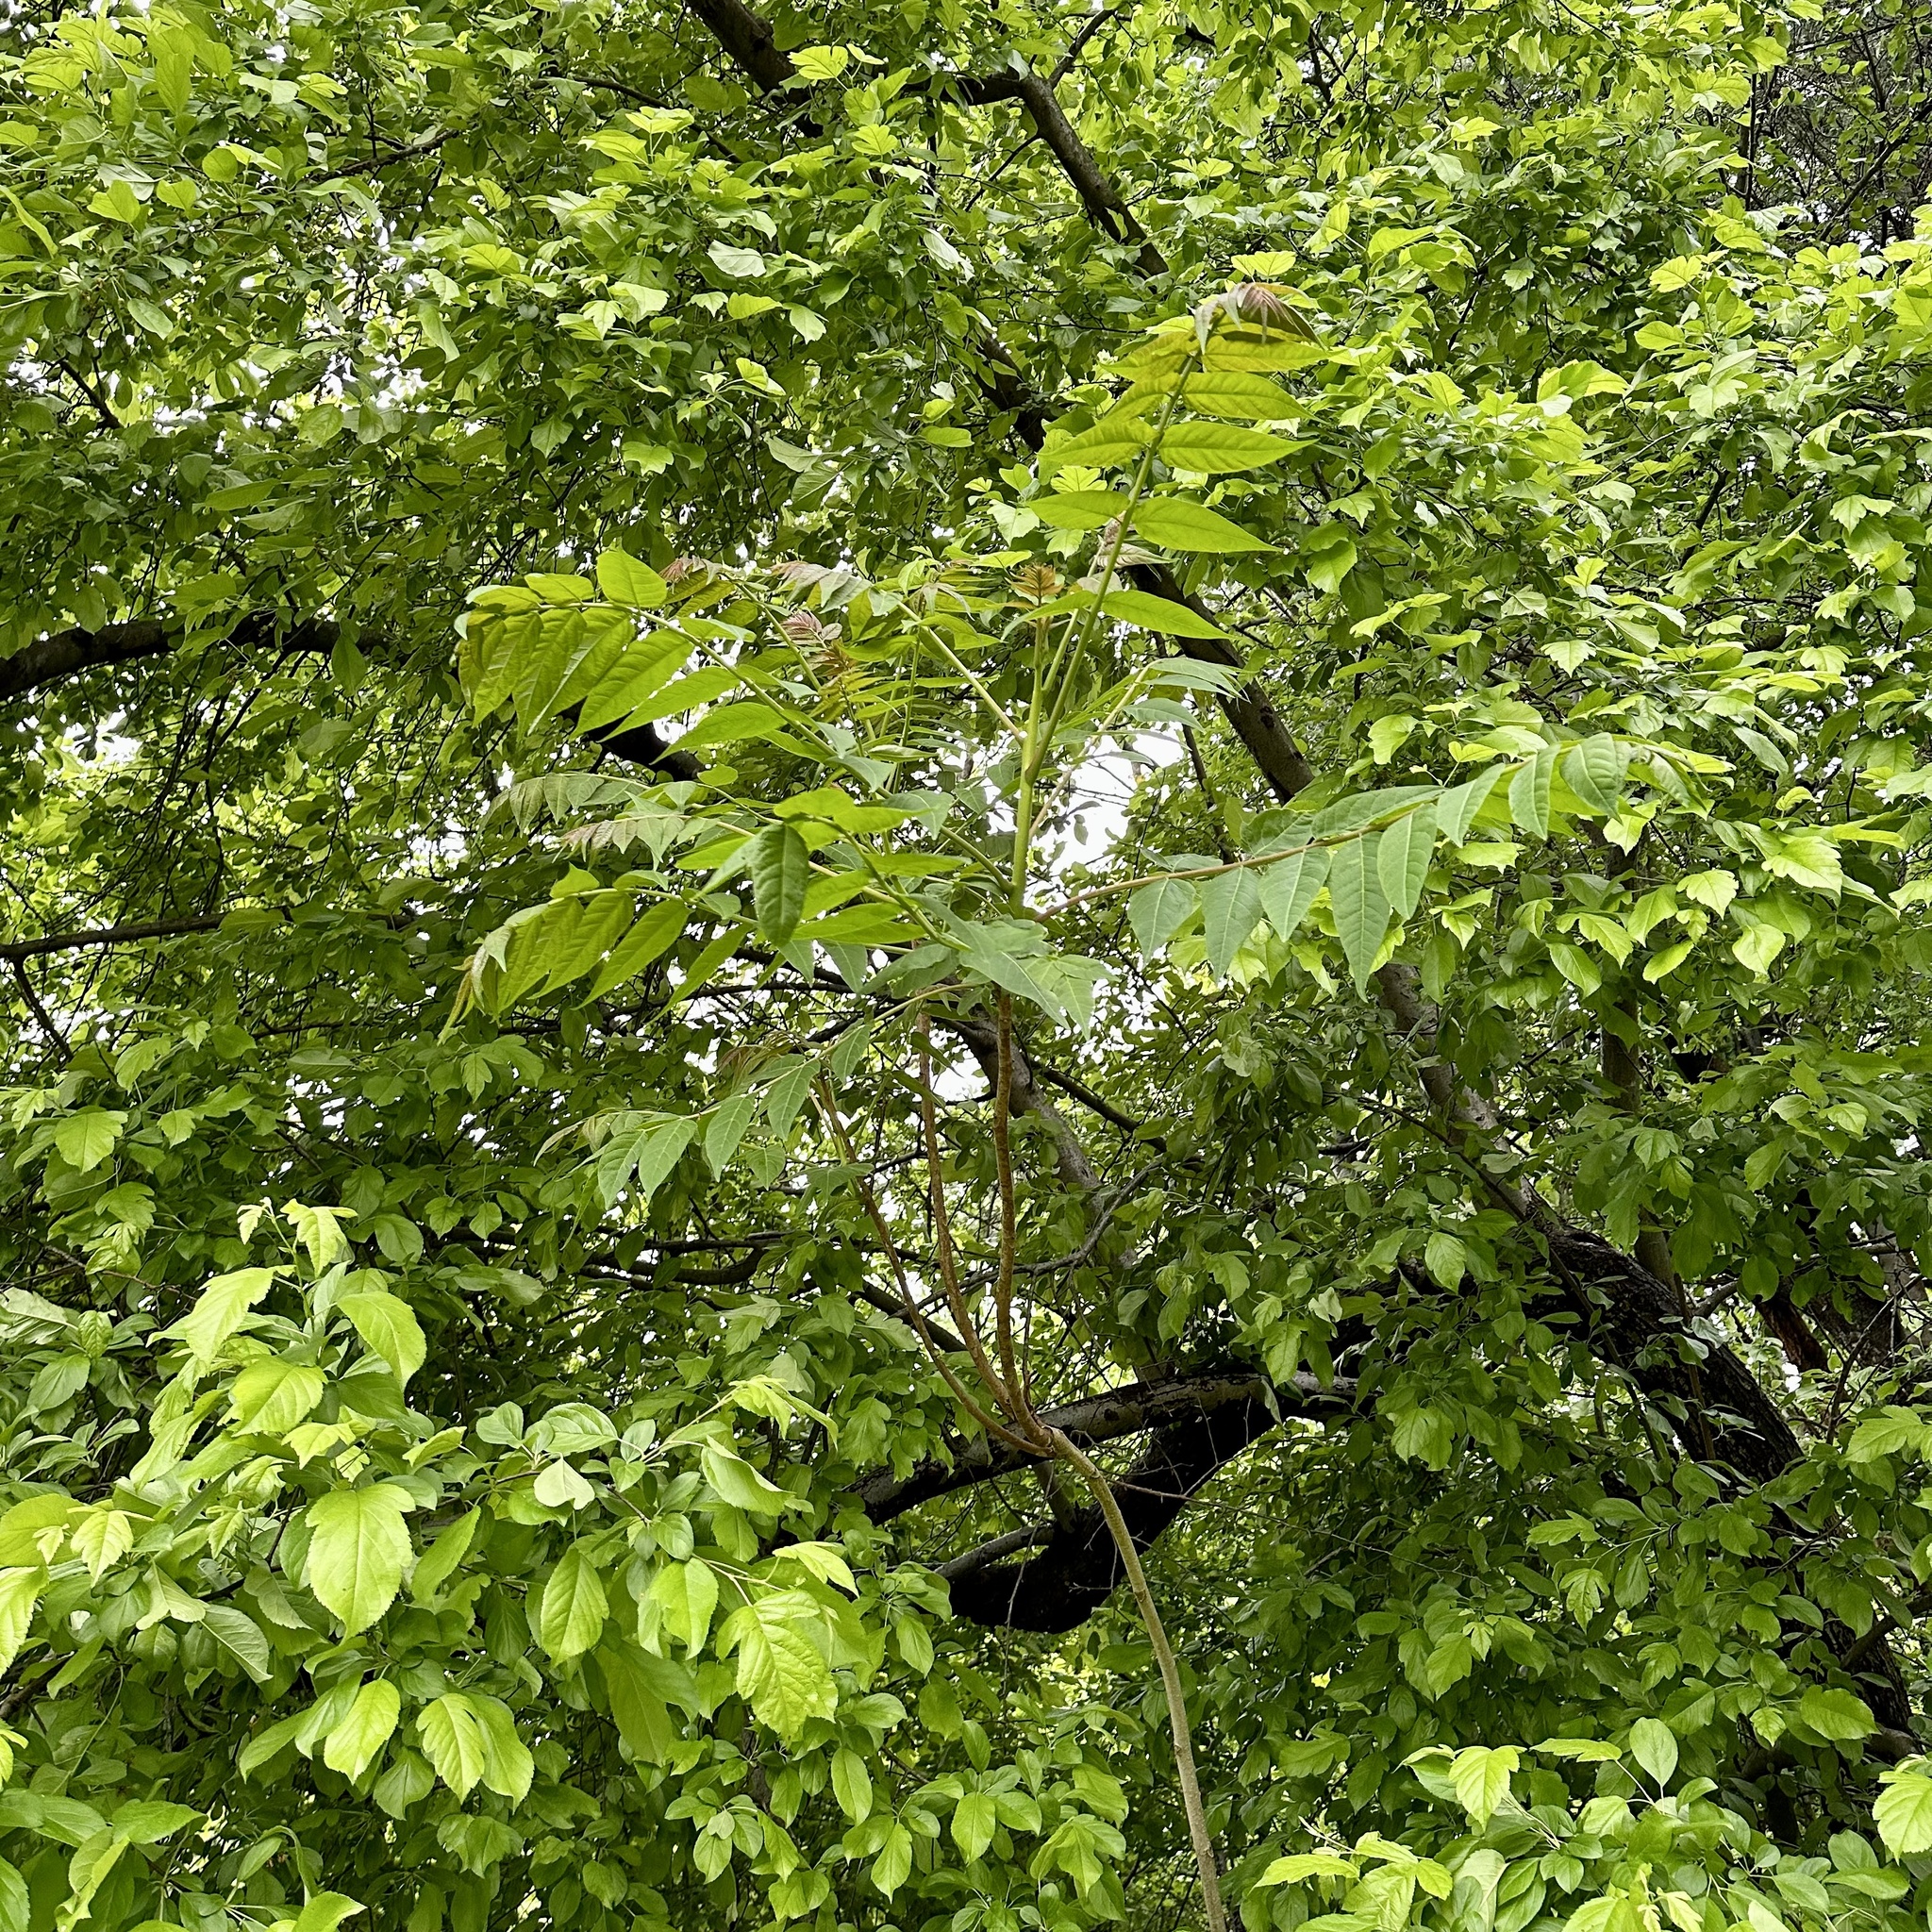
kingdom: Plantae
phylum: Tracheophyta
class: Magnoliopsida
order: Sapindales
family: Simaroubaceae
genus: Ailanthus
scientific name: Ailanthus altissima
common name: Tree-of-heaven
